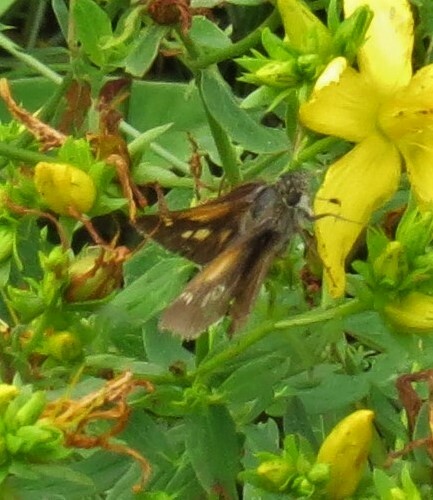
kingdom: Animalia
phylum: Arthropoda
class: Insecta
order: Lepidoptera
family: Hesperiidae
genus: Polites
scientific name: Polites themistocles
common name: Tawny-edged skipper
